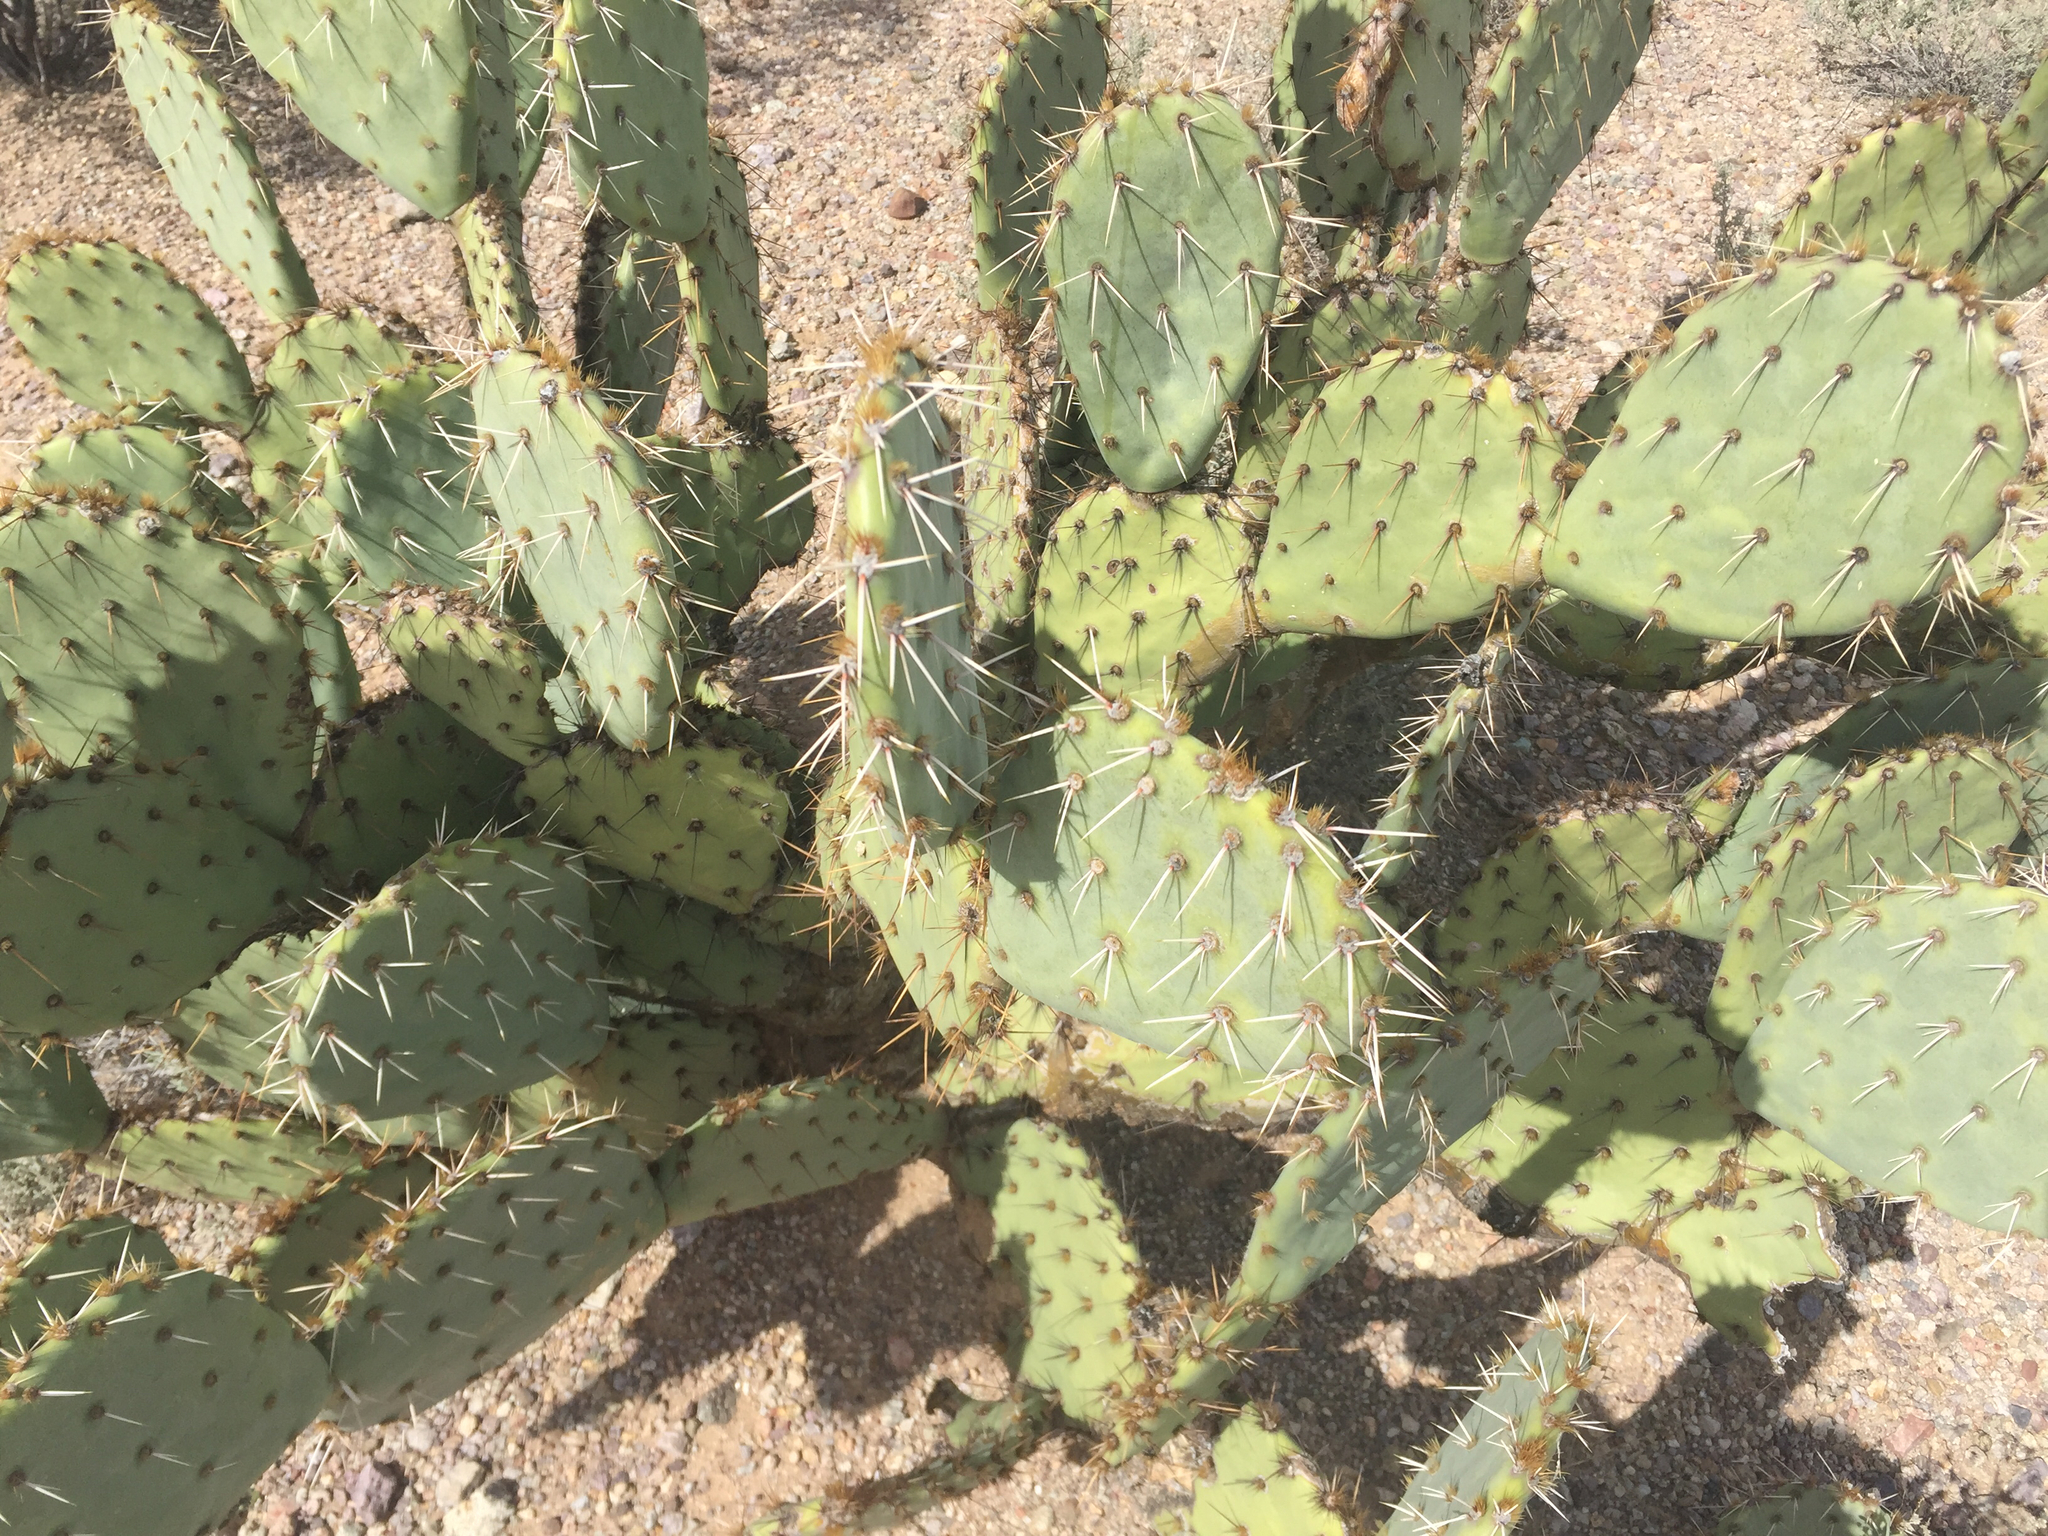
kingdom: Plantae
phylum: Tracheophyta
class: Magnoliopsida
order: Caryophyllales
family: Cactaceae
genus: Opuntia
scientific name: Opuntia engelmannii
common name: Cactus-apple
